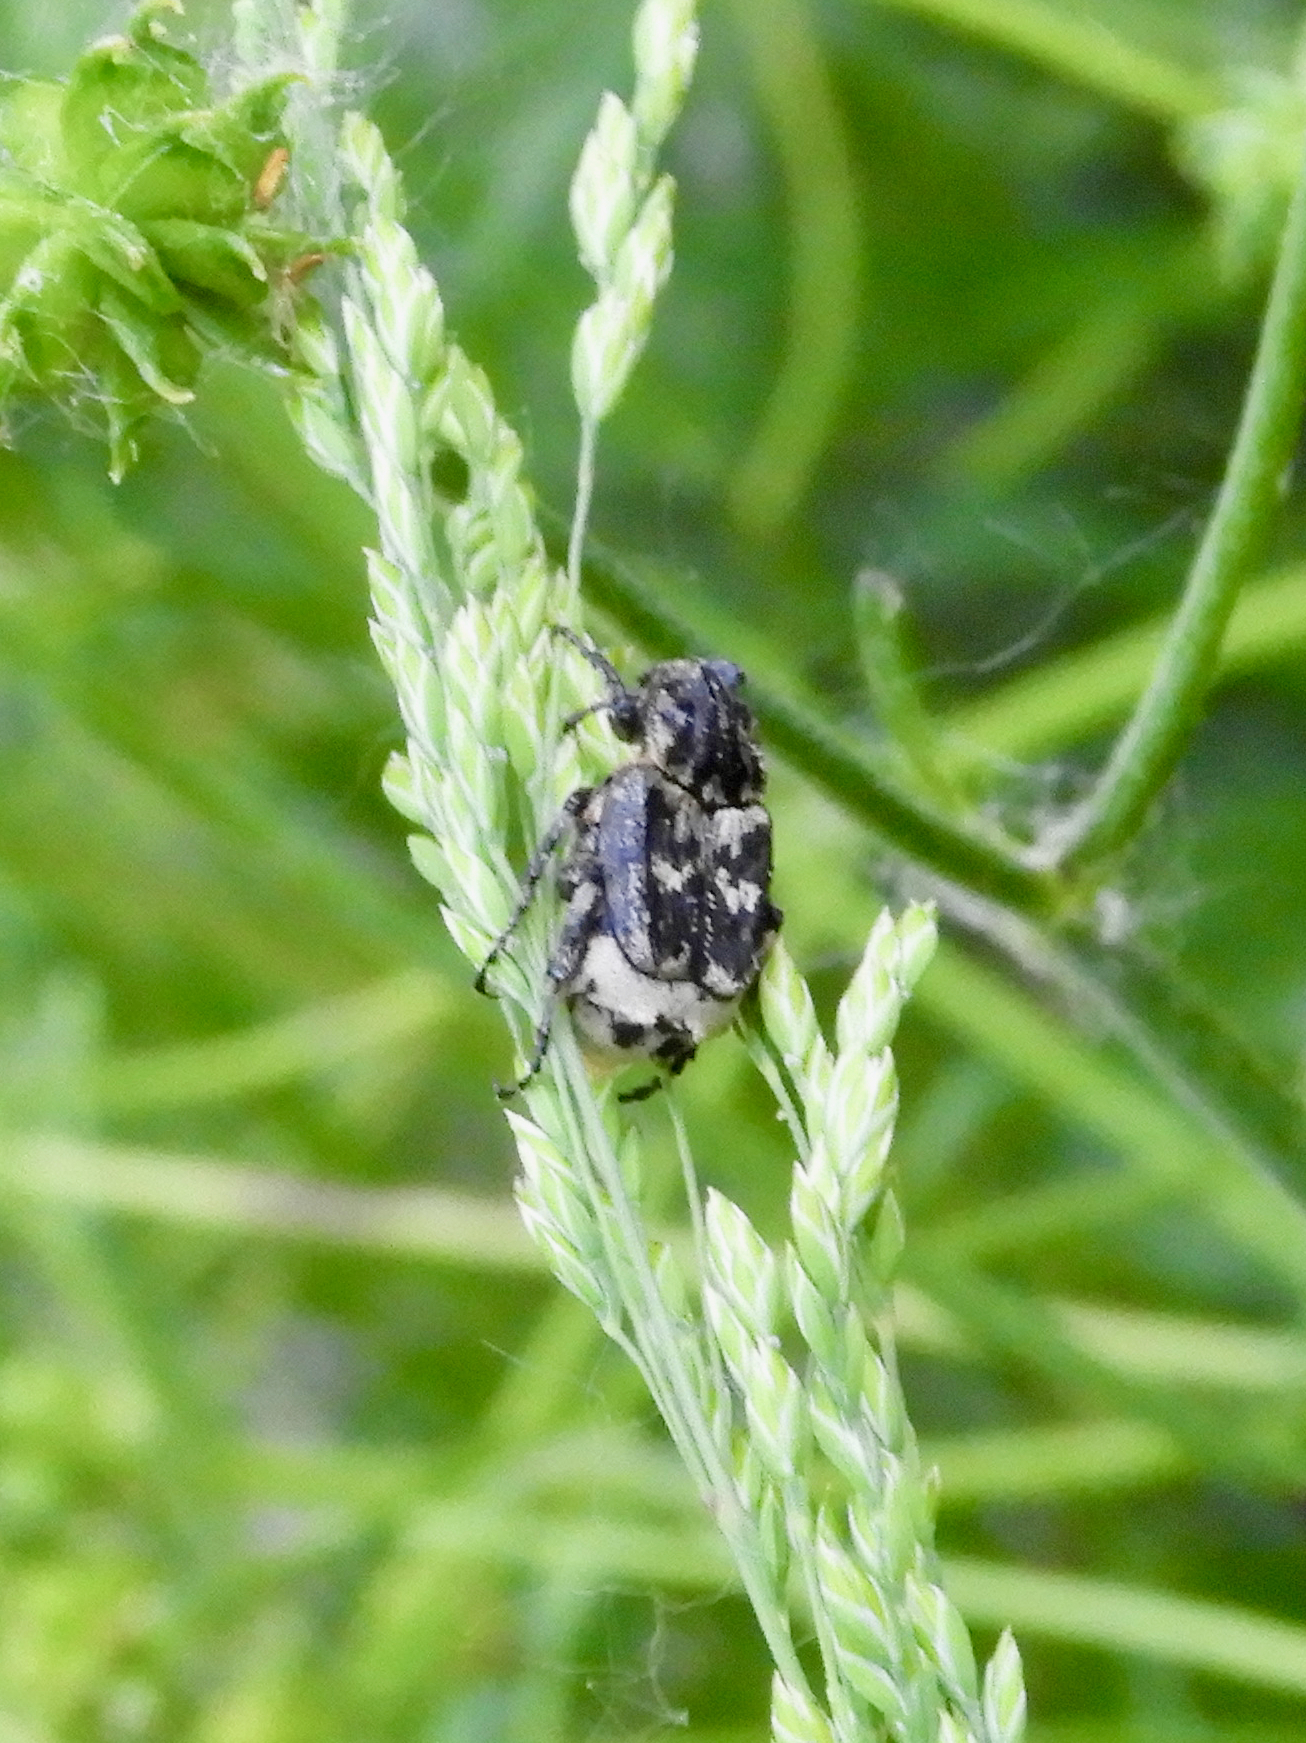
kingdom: Animalia
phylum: Arthropoda
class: Insecta
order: Coleoptera
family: Scarabaeidae
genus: Valgus
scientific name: Valgus hemipterus
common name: Bug flower chafer
